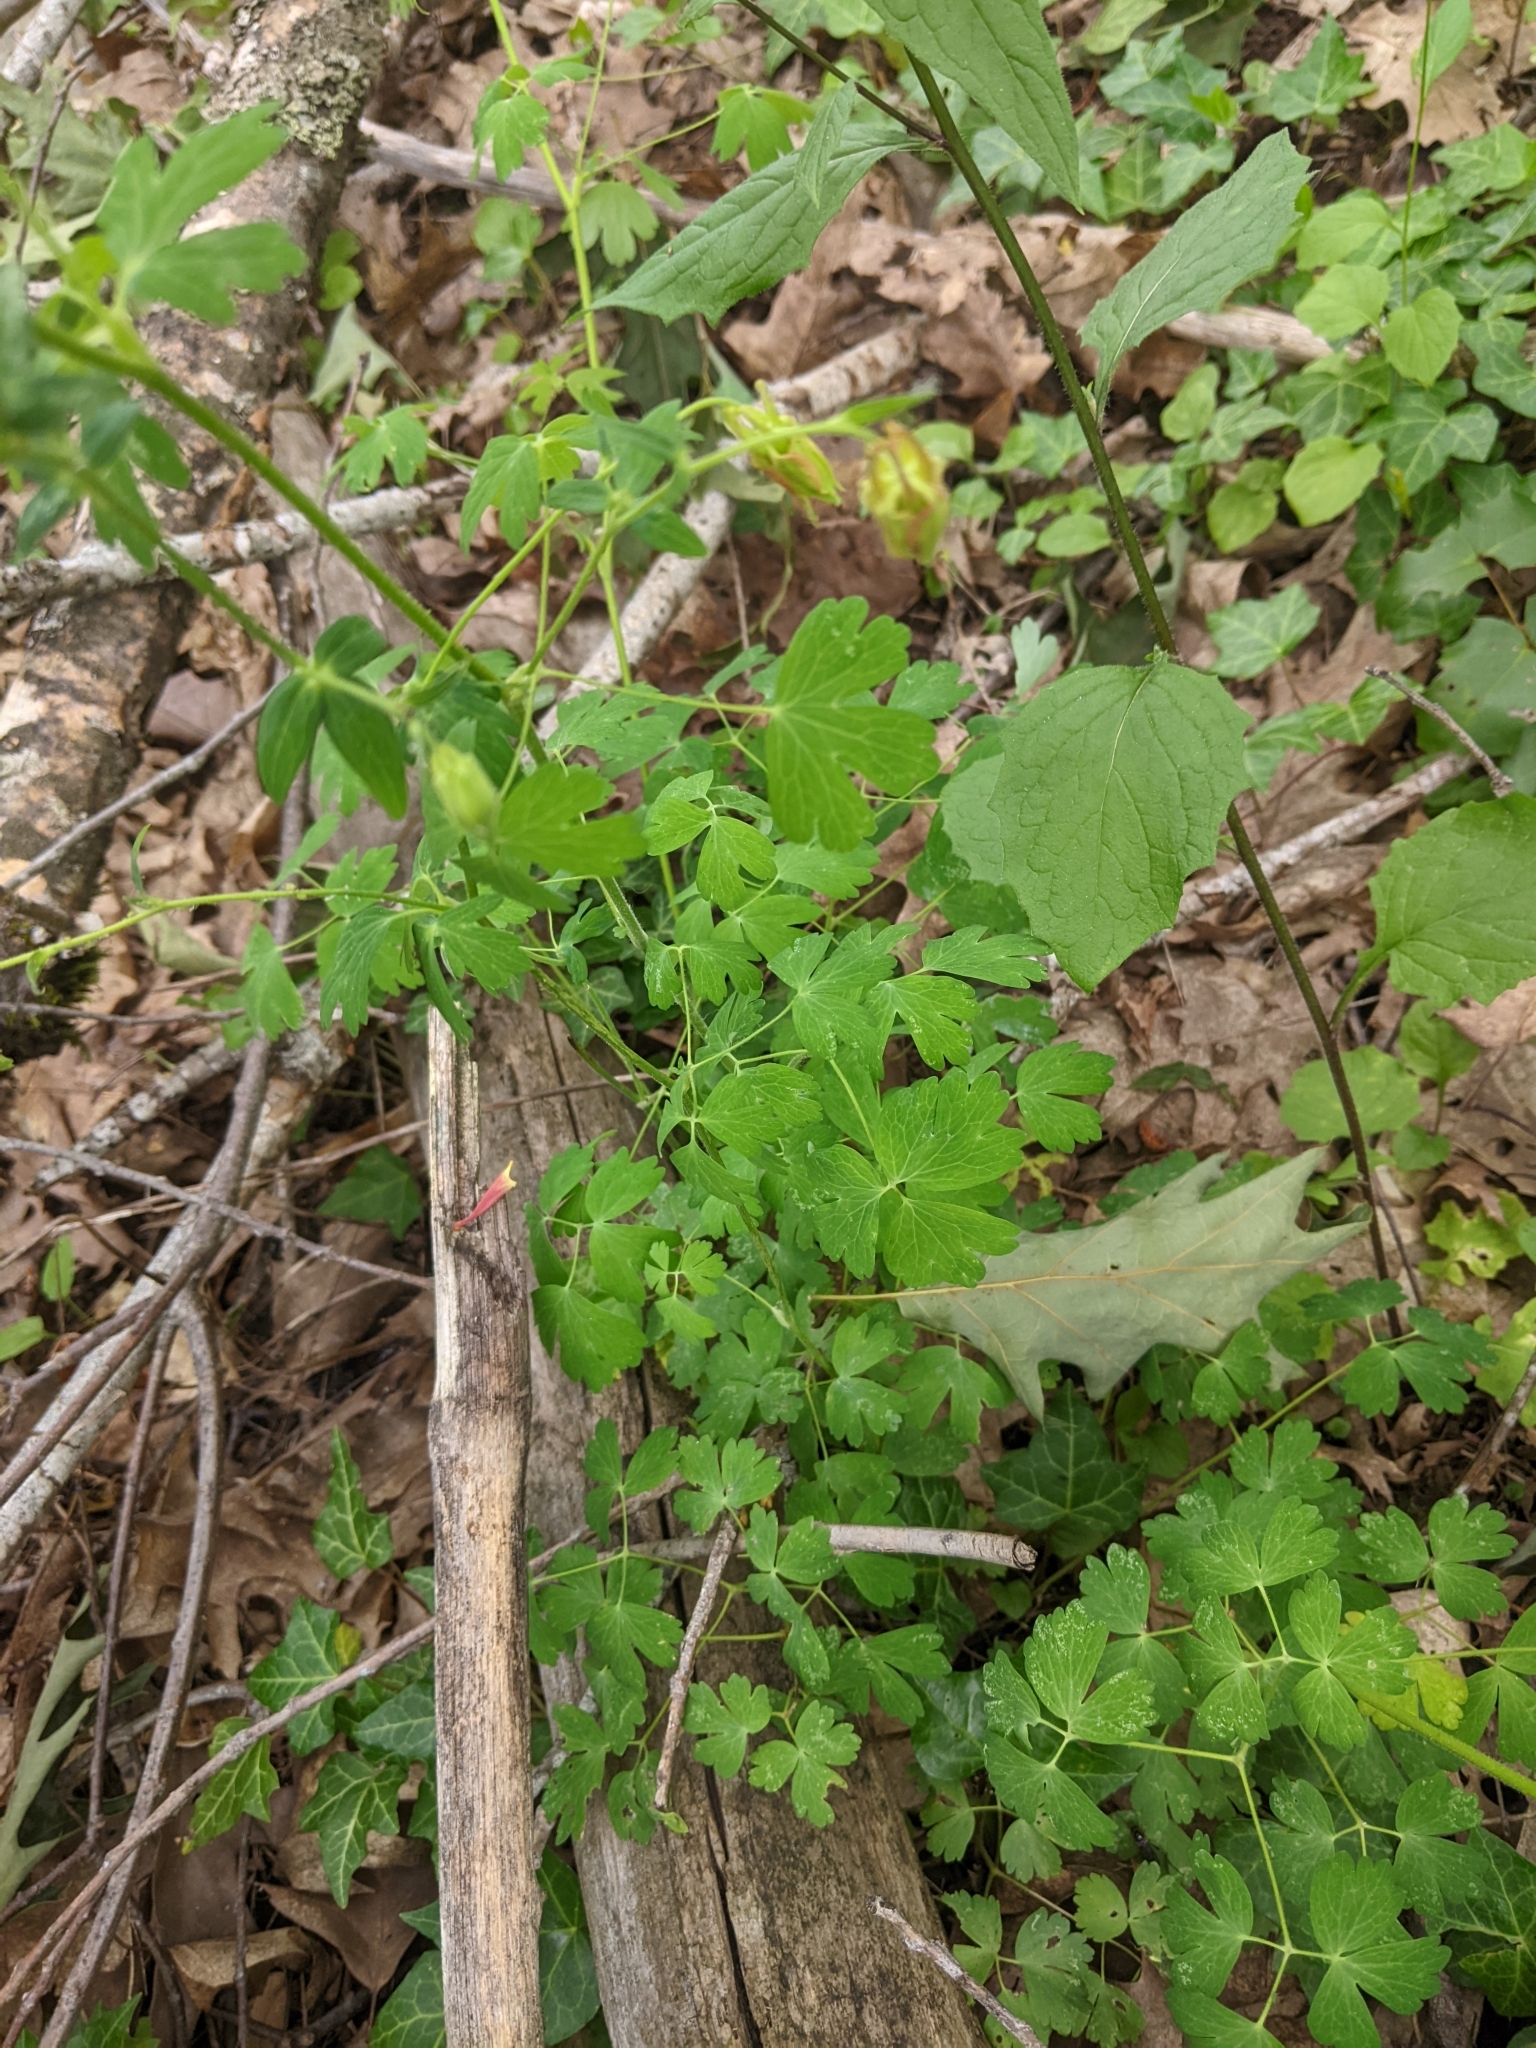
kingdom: Plantae
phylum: Tracheophyta
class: Magnoliopsida
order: Ranunculales
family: Ranunculaceae
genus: Aquilegia
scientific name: Aquilegia formosa
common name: Sitka columbine
